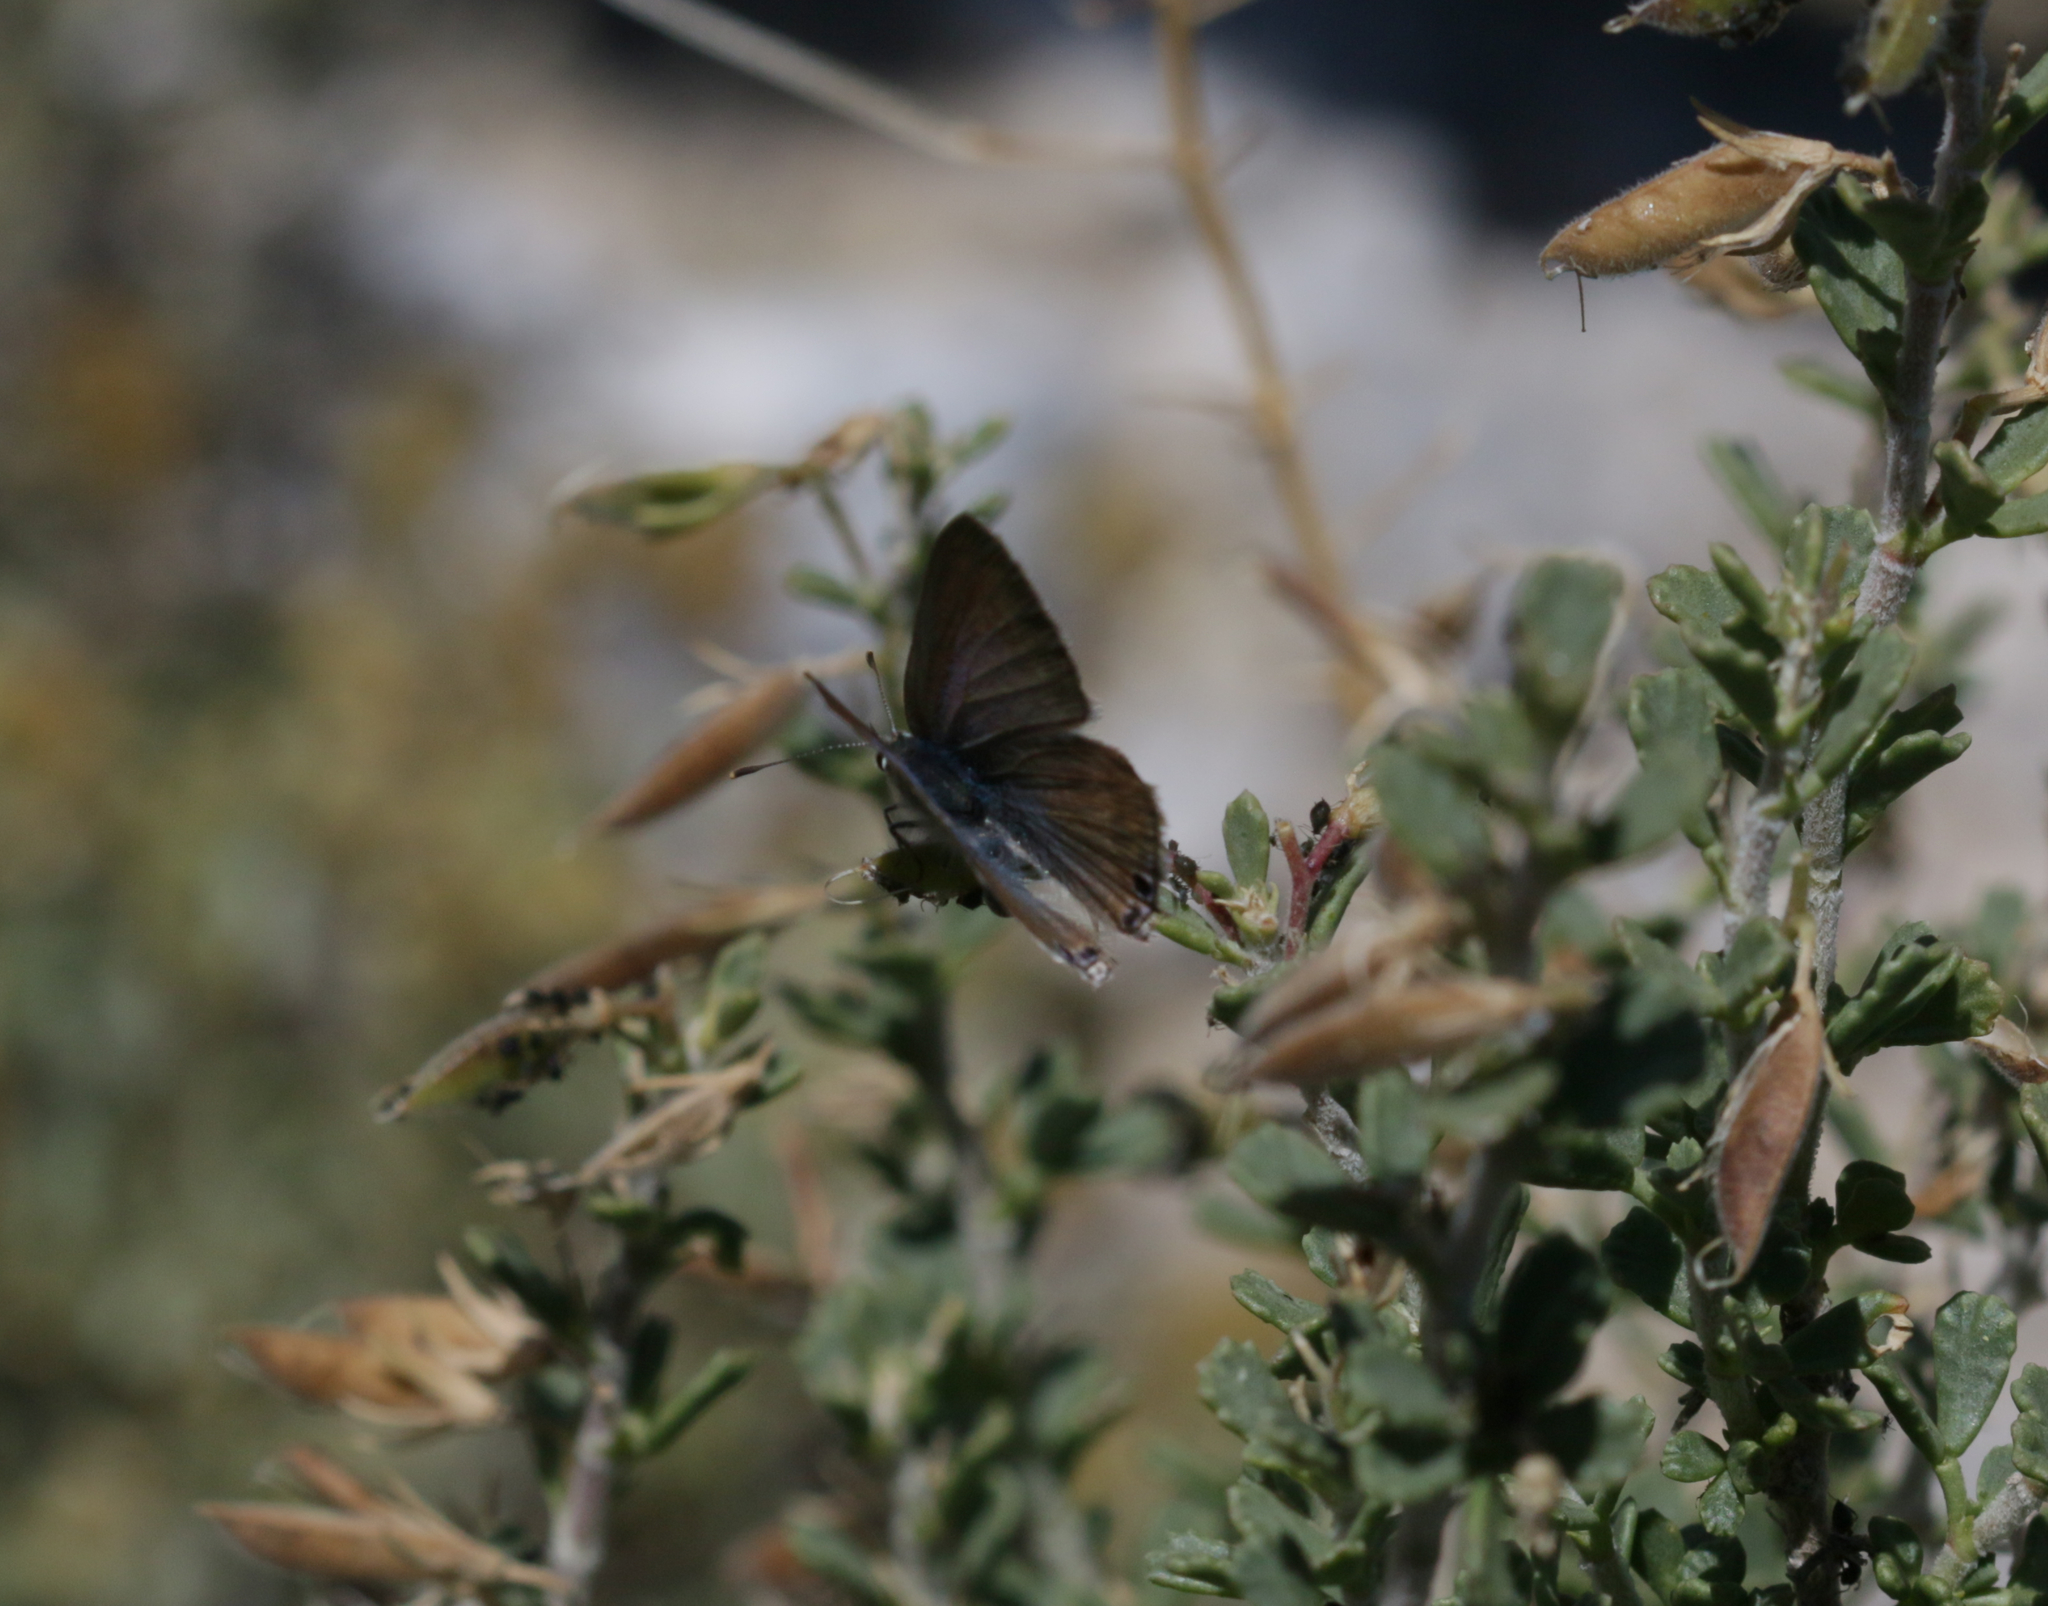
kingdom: Animalia
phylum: Arthropoda
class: Insecta
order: Lepidoptera
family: Lycaenidae
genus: Lampides
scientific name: Lampides boeticus
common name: Long-tailed blue
